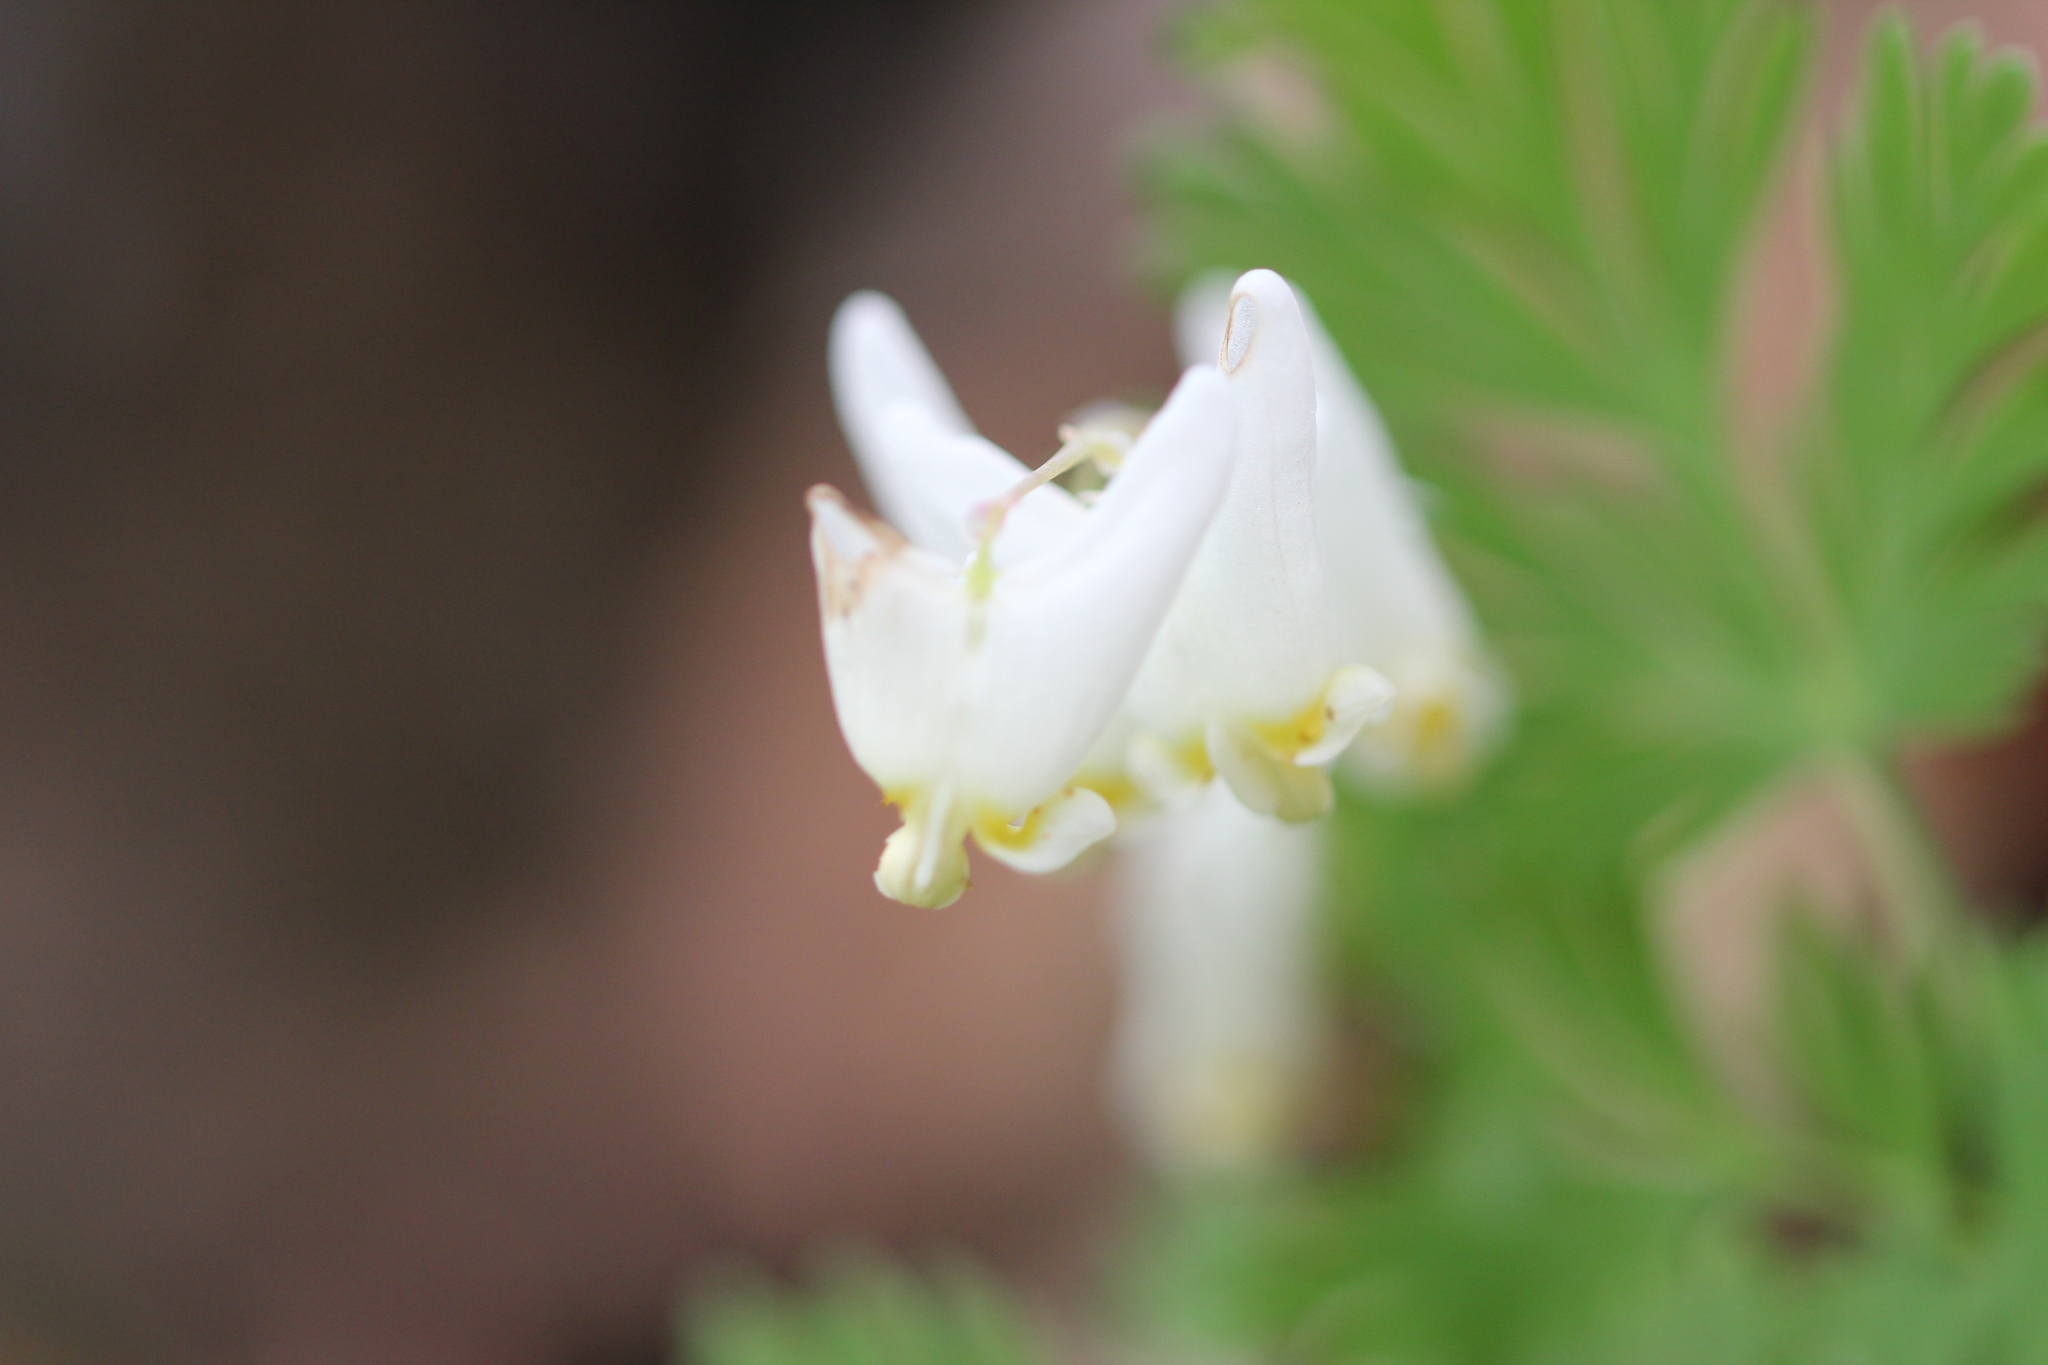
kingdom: Plantae
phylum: Tracheophyta
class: Magnoliopsida
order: Ranunculales
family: Papaveraceae
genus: Dicentra
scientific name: Dicentra cucullaria
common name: Dutchman's breeches
